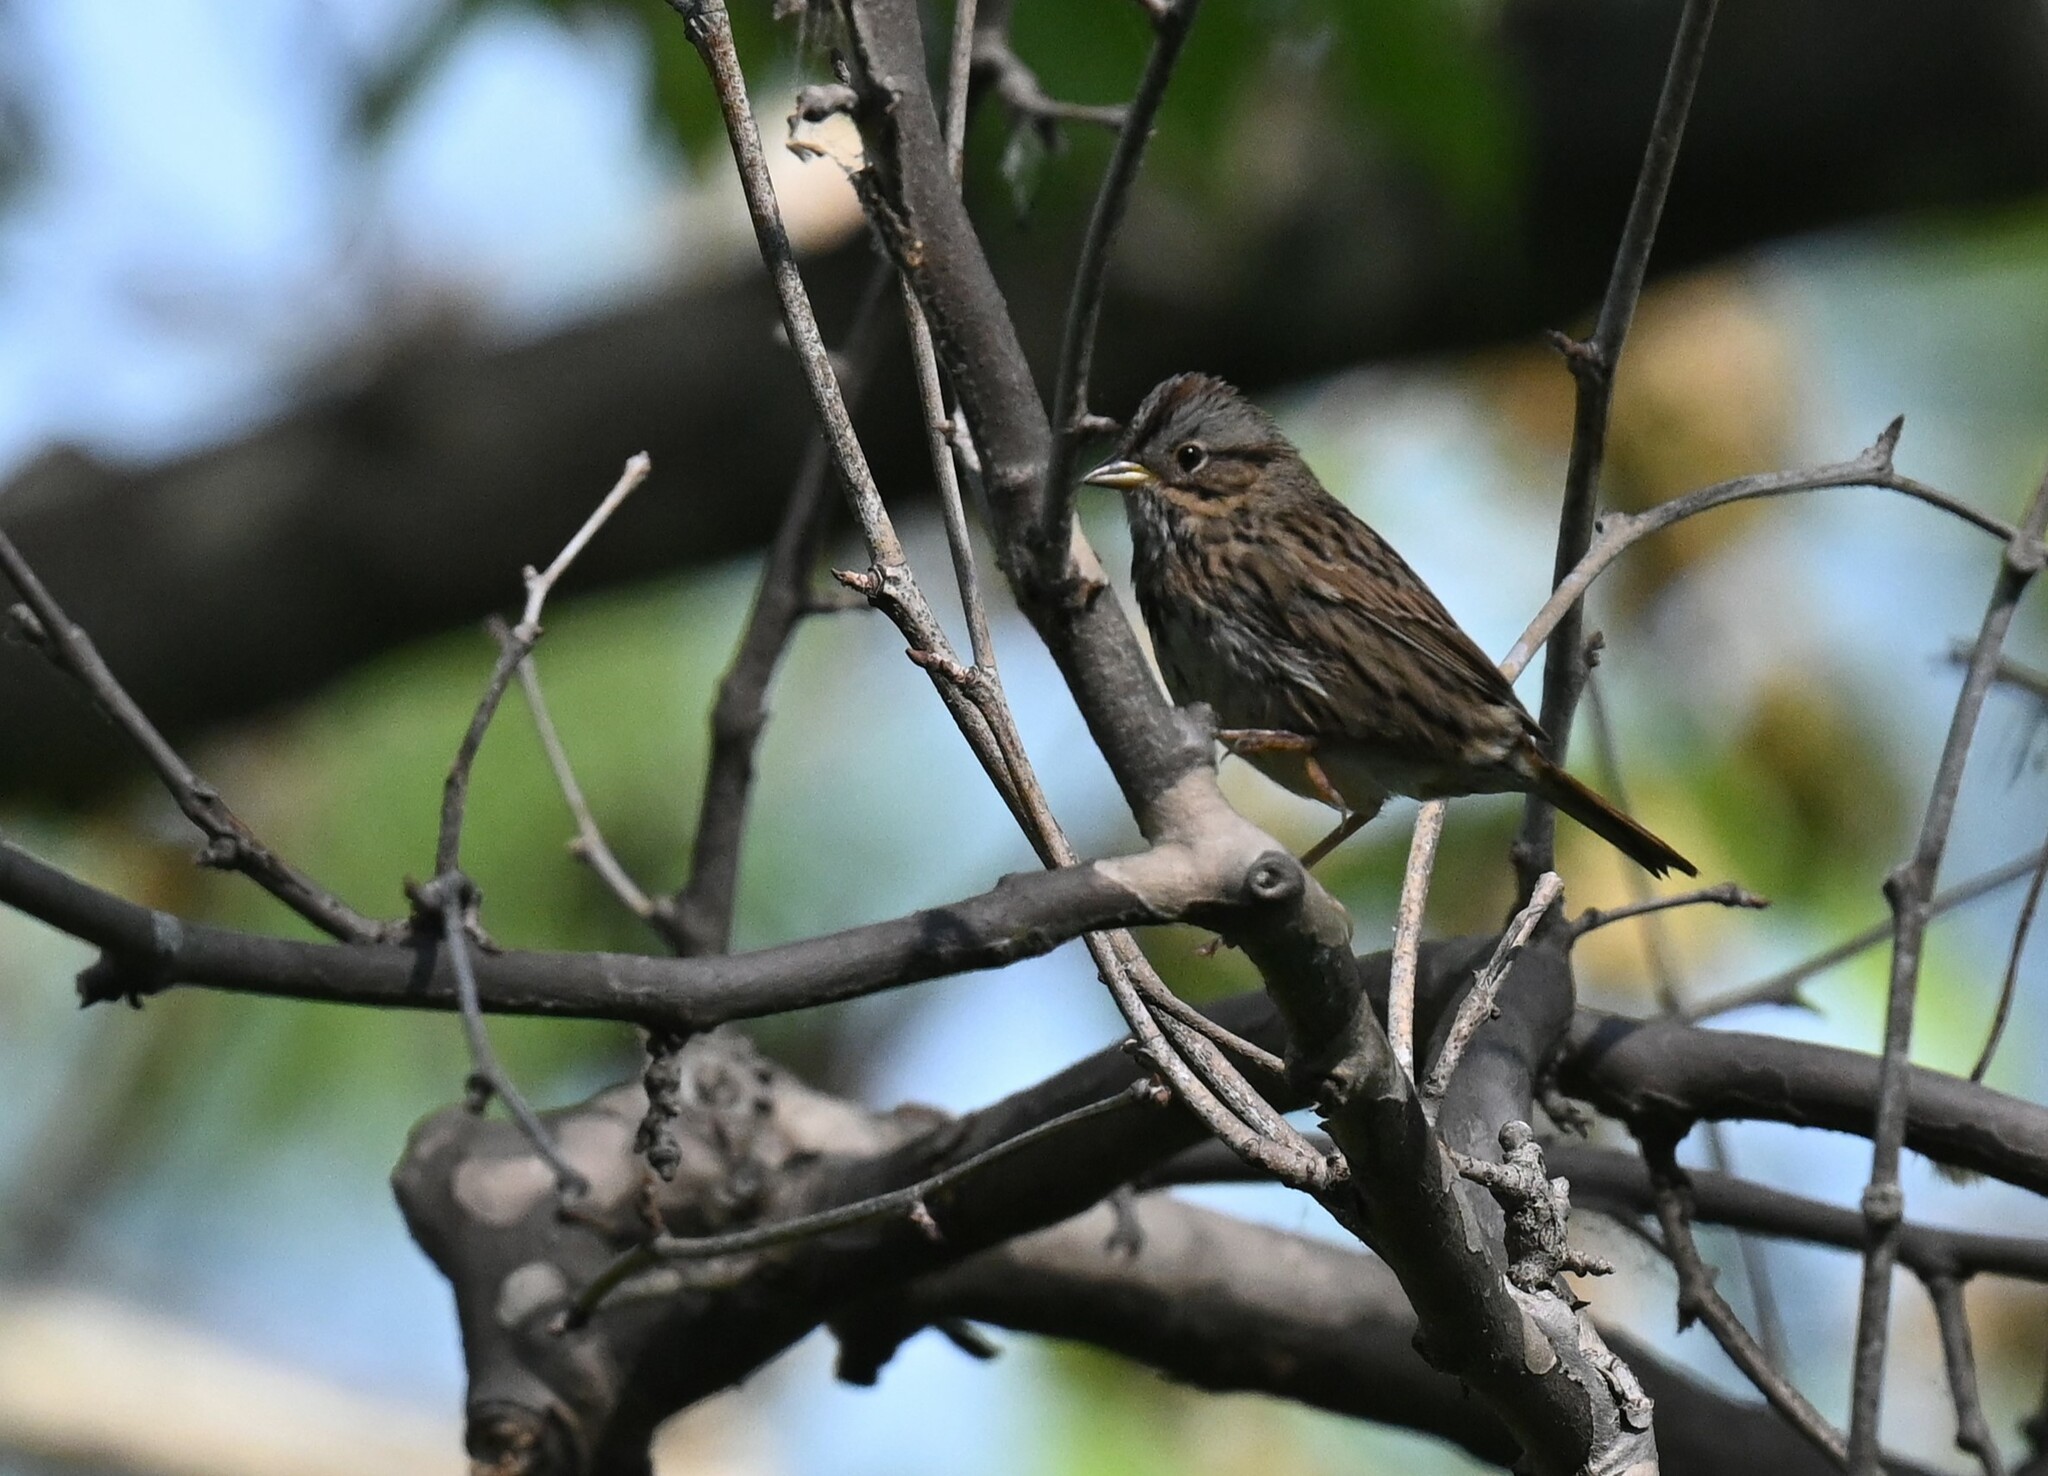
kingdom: Animalia
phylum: Chordata
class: Aves
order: Passeriformes
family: Passerellidae
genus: Melospiza
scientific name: Melospiza lincolnii
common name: Lincoln's sparrow
